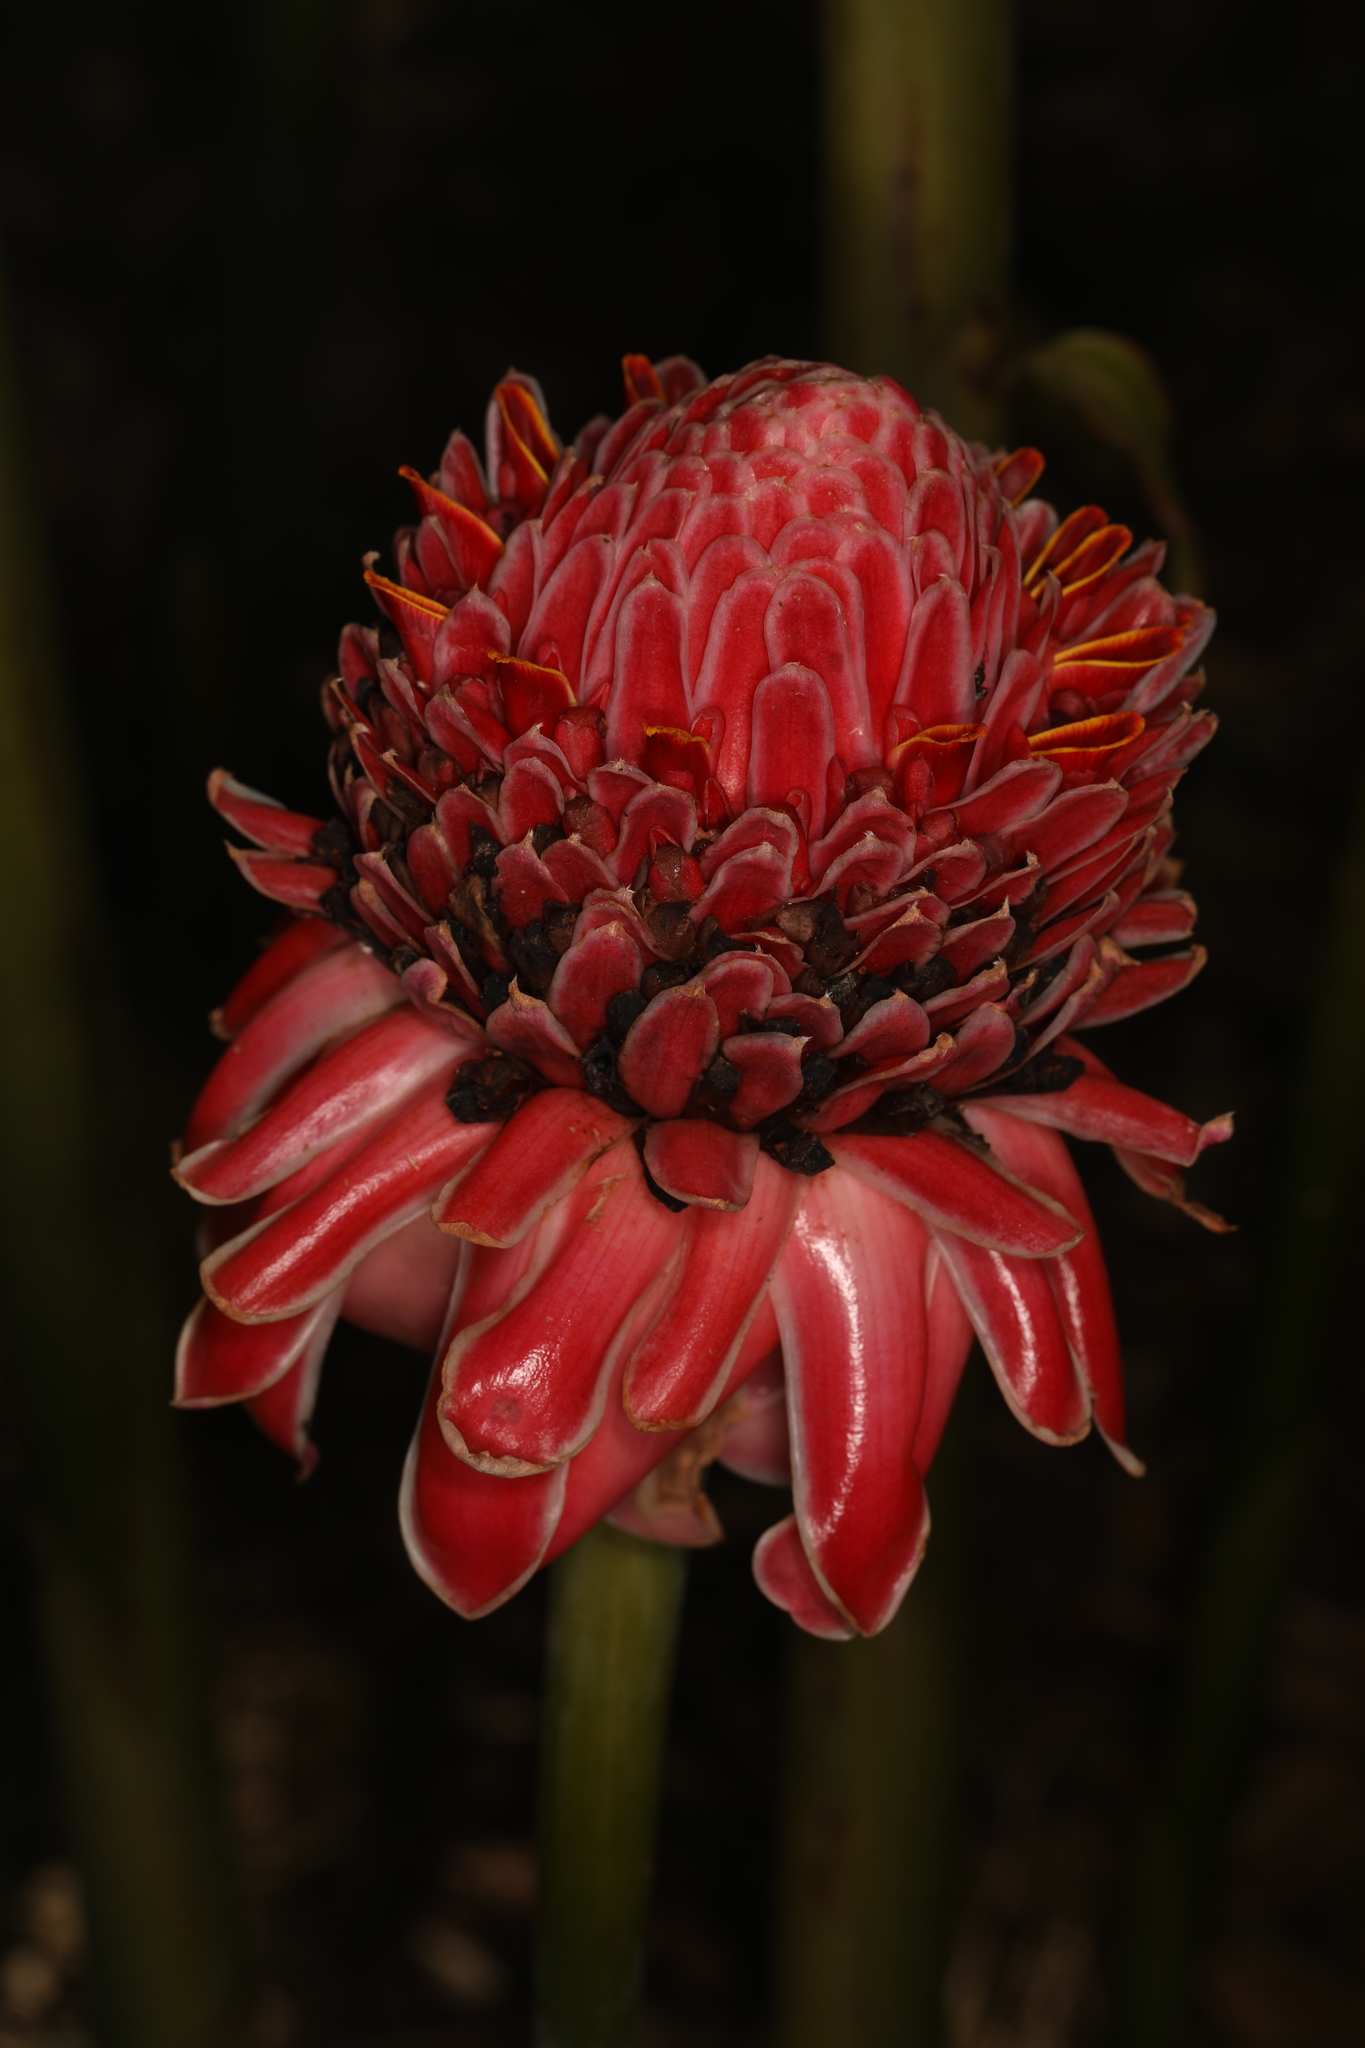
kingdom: Plantae
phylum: Tracheophyta
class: Liliopsida
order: Zingiberales
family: Zingiberaceae
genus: Etlingera
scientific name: Etlingera elatior
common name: Philippine waxflower
